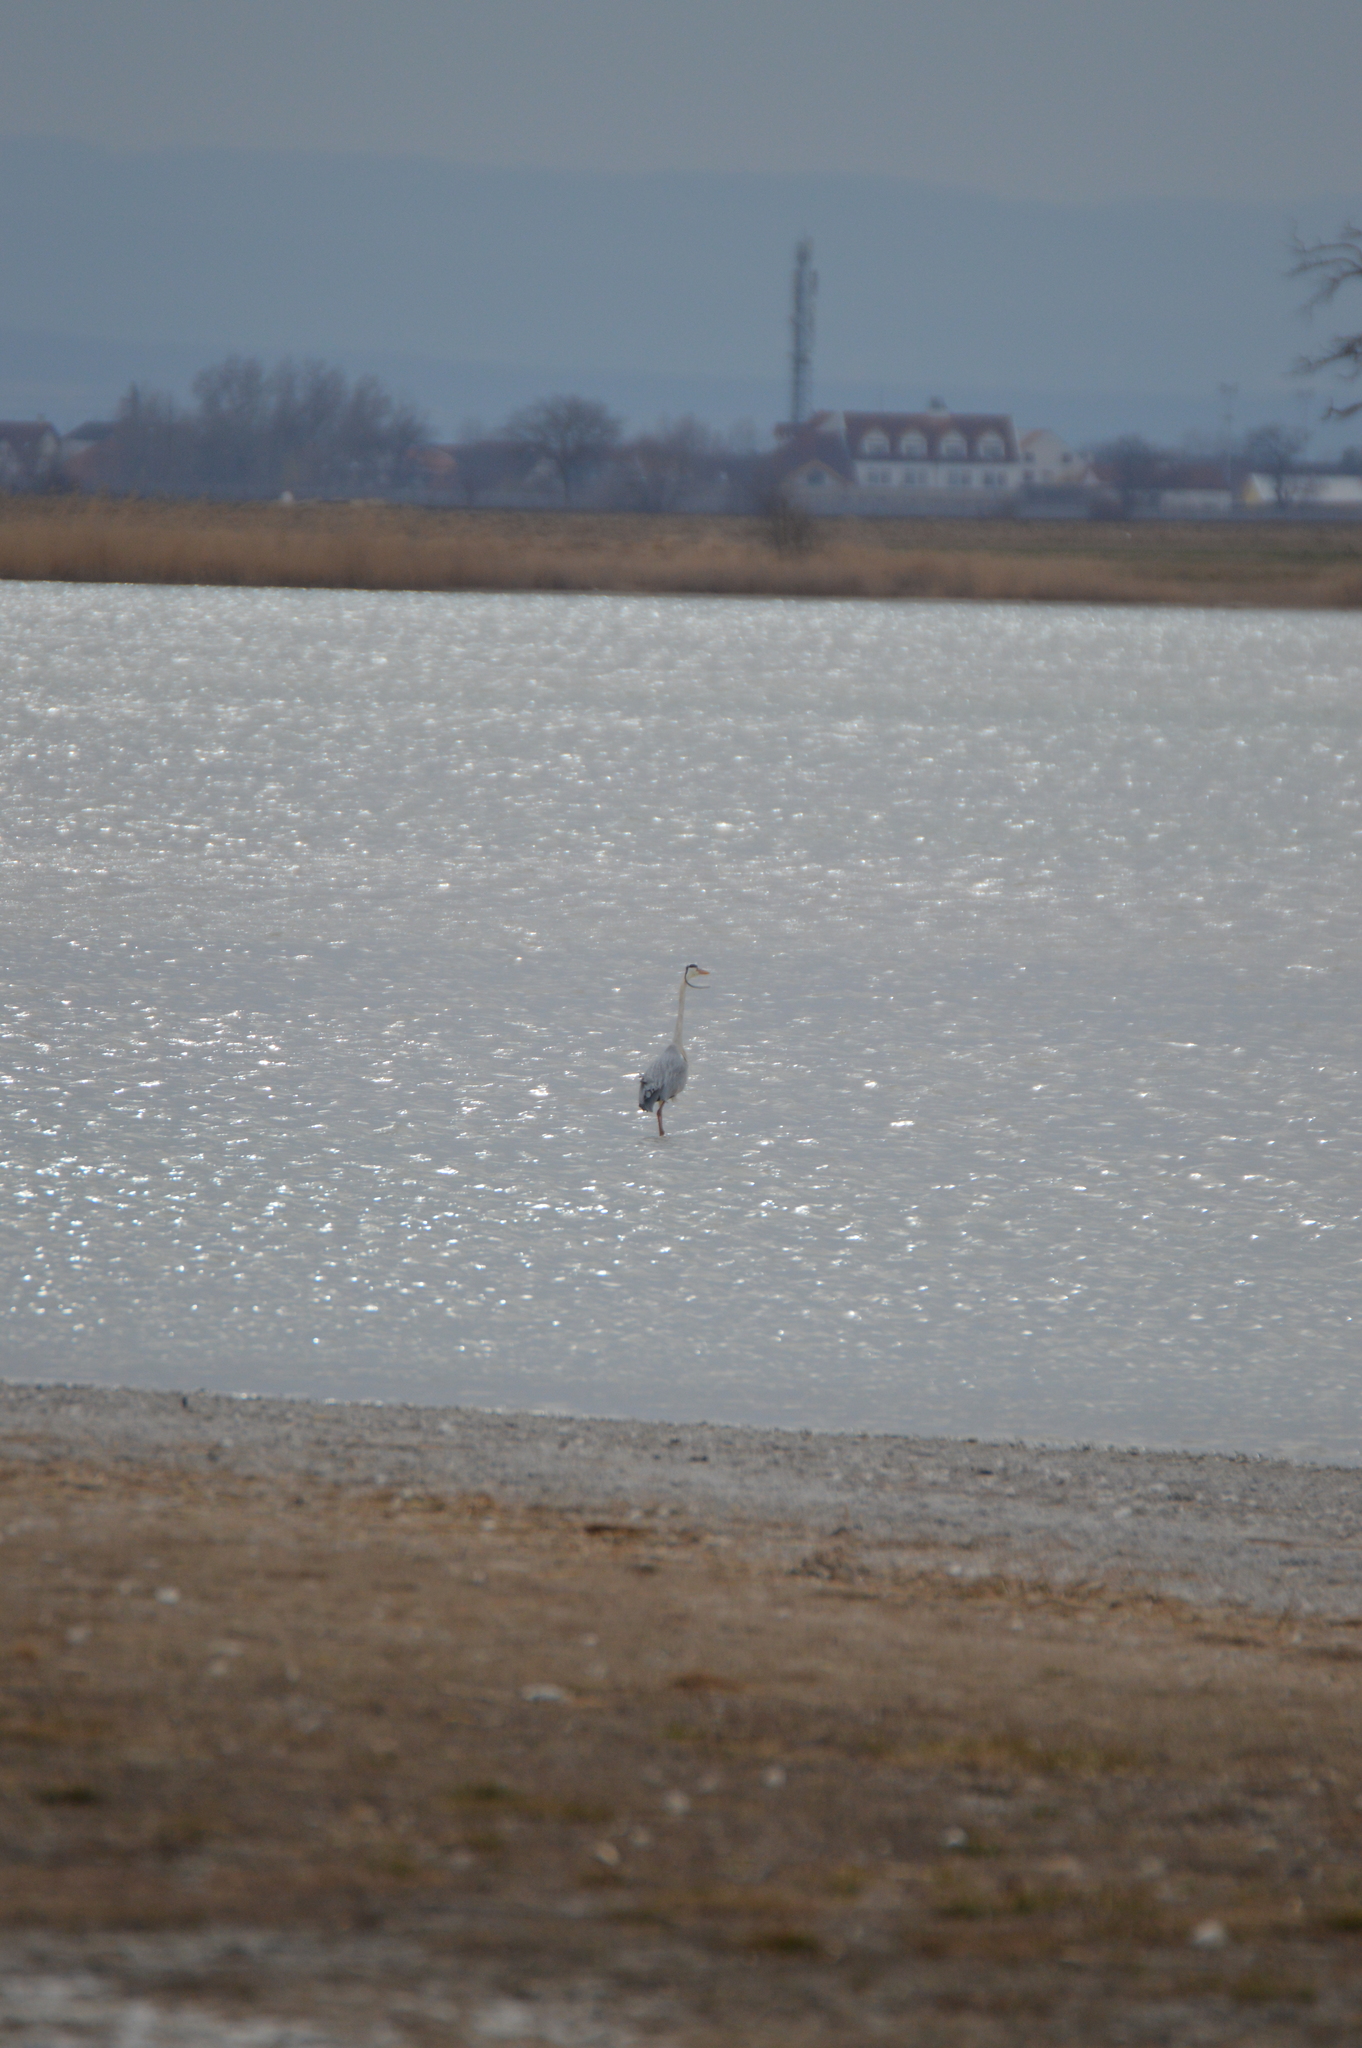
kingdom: Animalia
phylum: Chordata
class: Aves
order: Pelecaniformes
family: Ardeidae
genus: Ardea
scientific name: Ardea cinerea
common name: Grey heron
